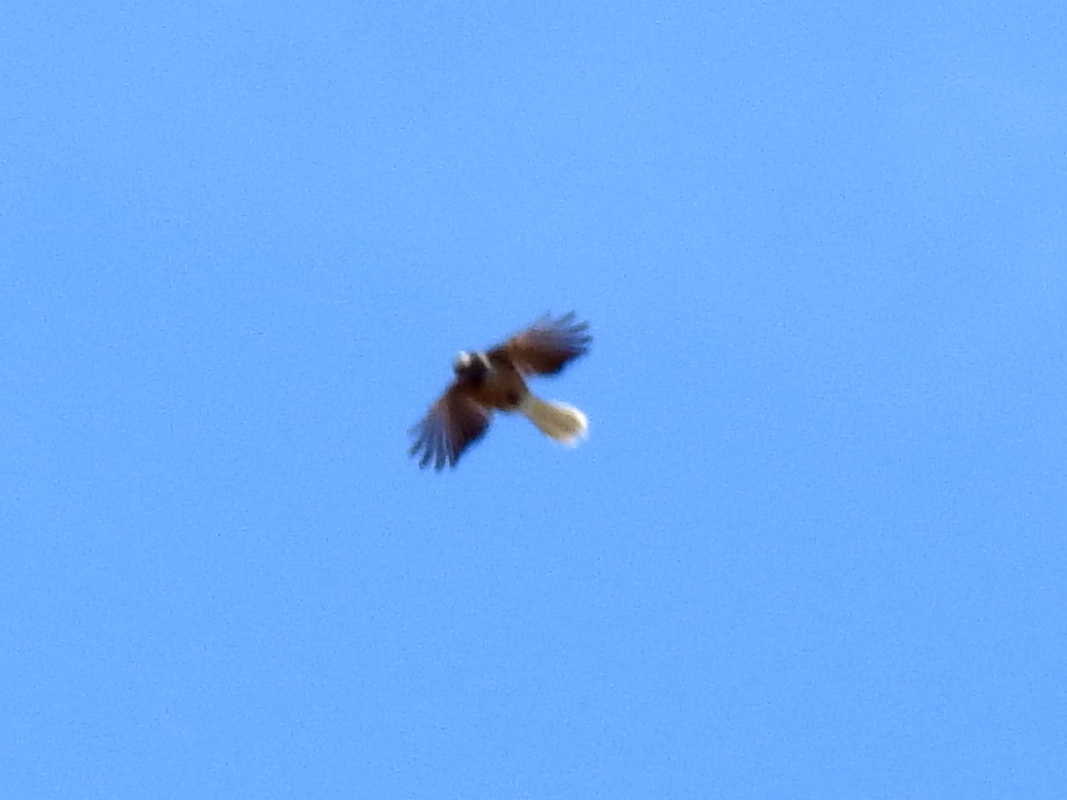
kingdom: Animalia
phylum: Chordata
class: Aves
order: Passeriformes
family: Rhipiduridae
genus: Rhipidura
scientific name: Rhipidura fuliginosa
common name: New zealand fantail
